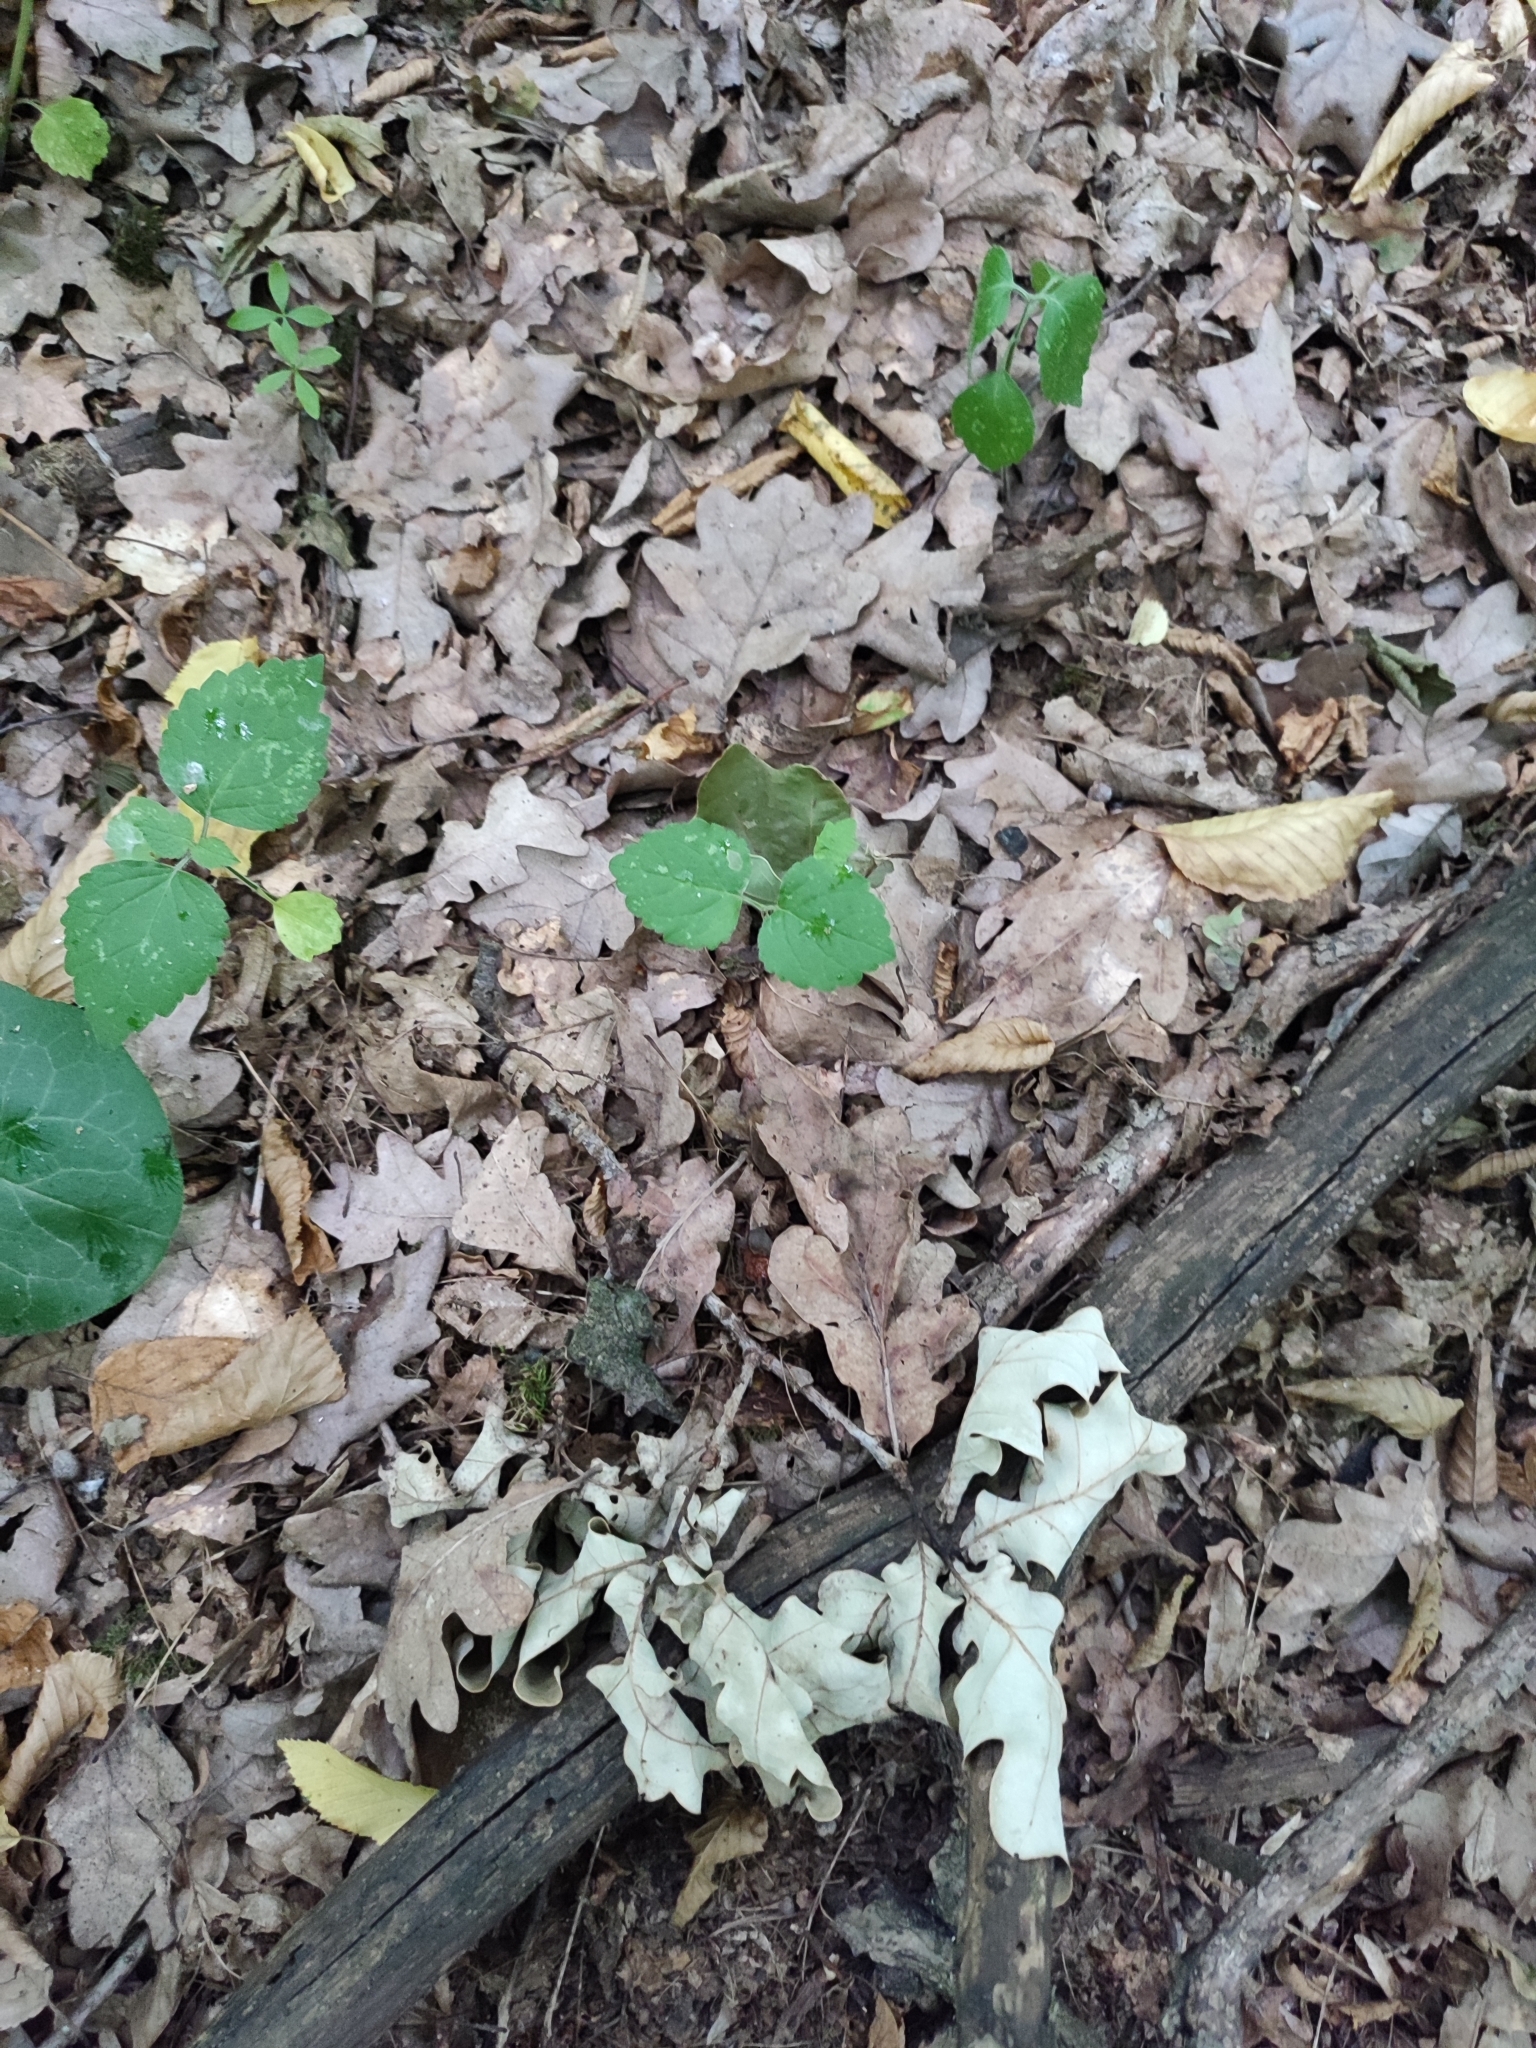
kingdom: Plantae
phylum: Tracheophyta
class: Magnoliopsida
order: Fagales
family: Fagaceae
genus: Quercus
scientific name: Quercus robur
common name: Pedunculate oak
